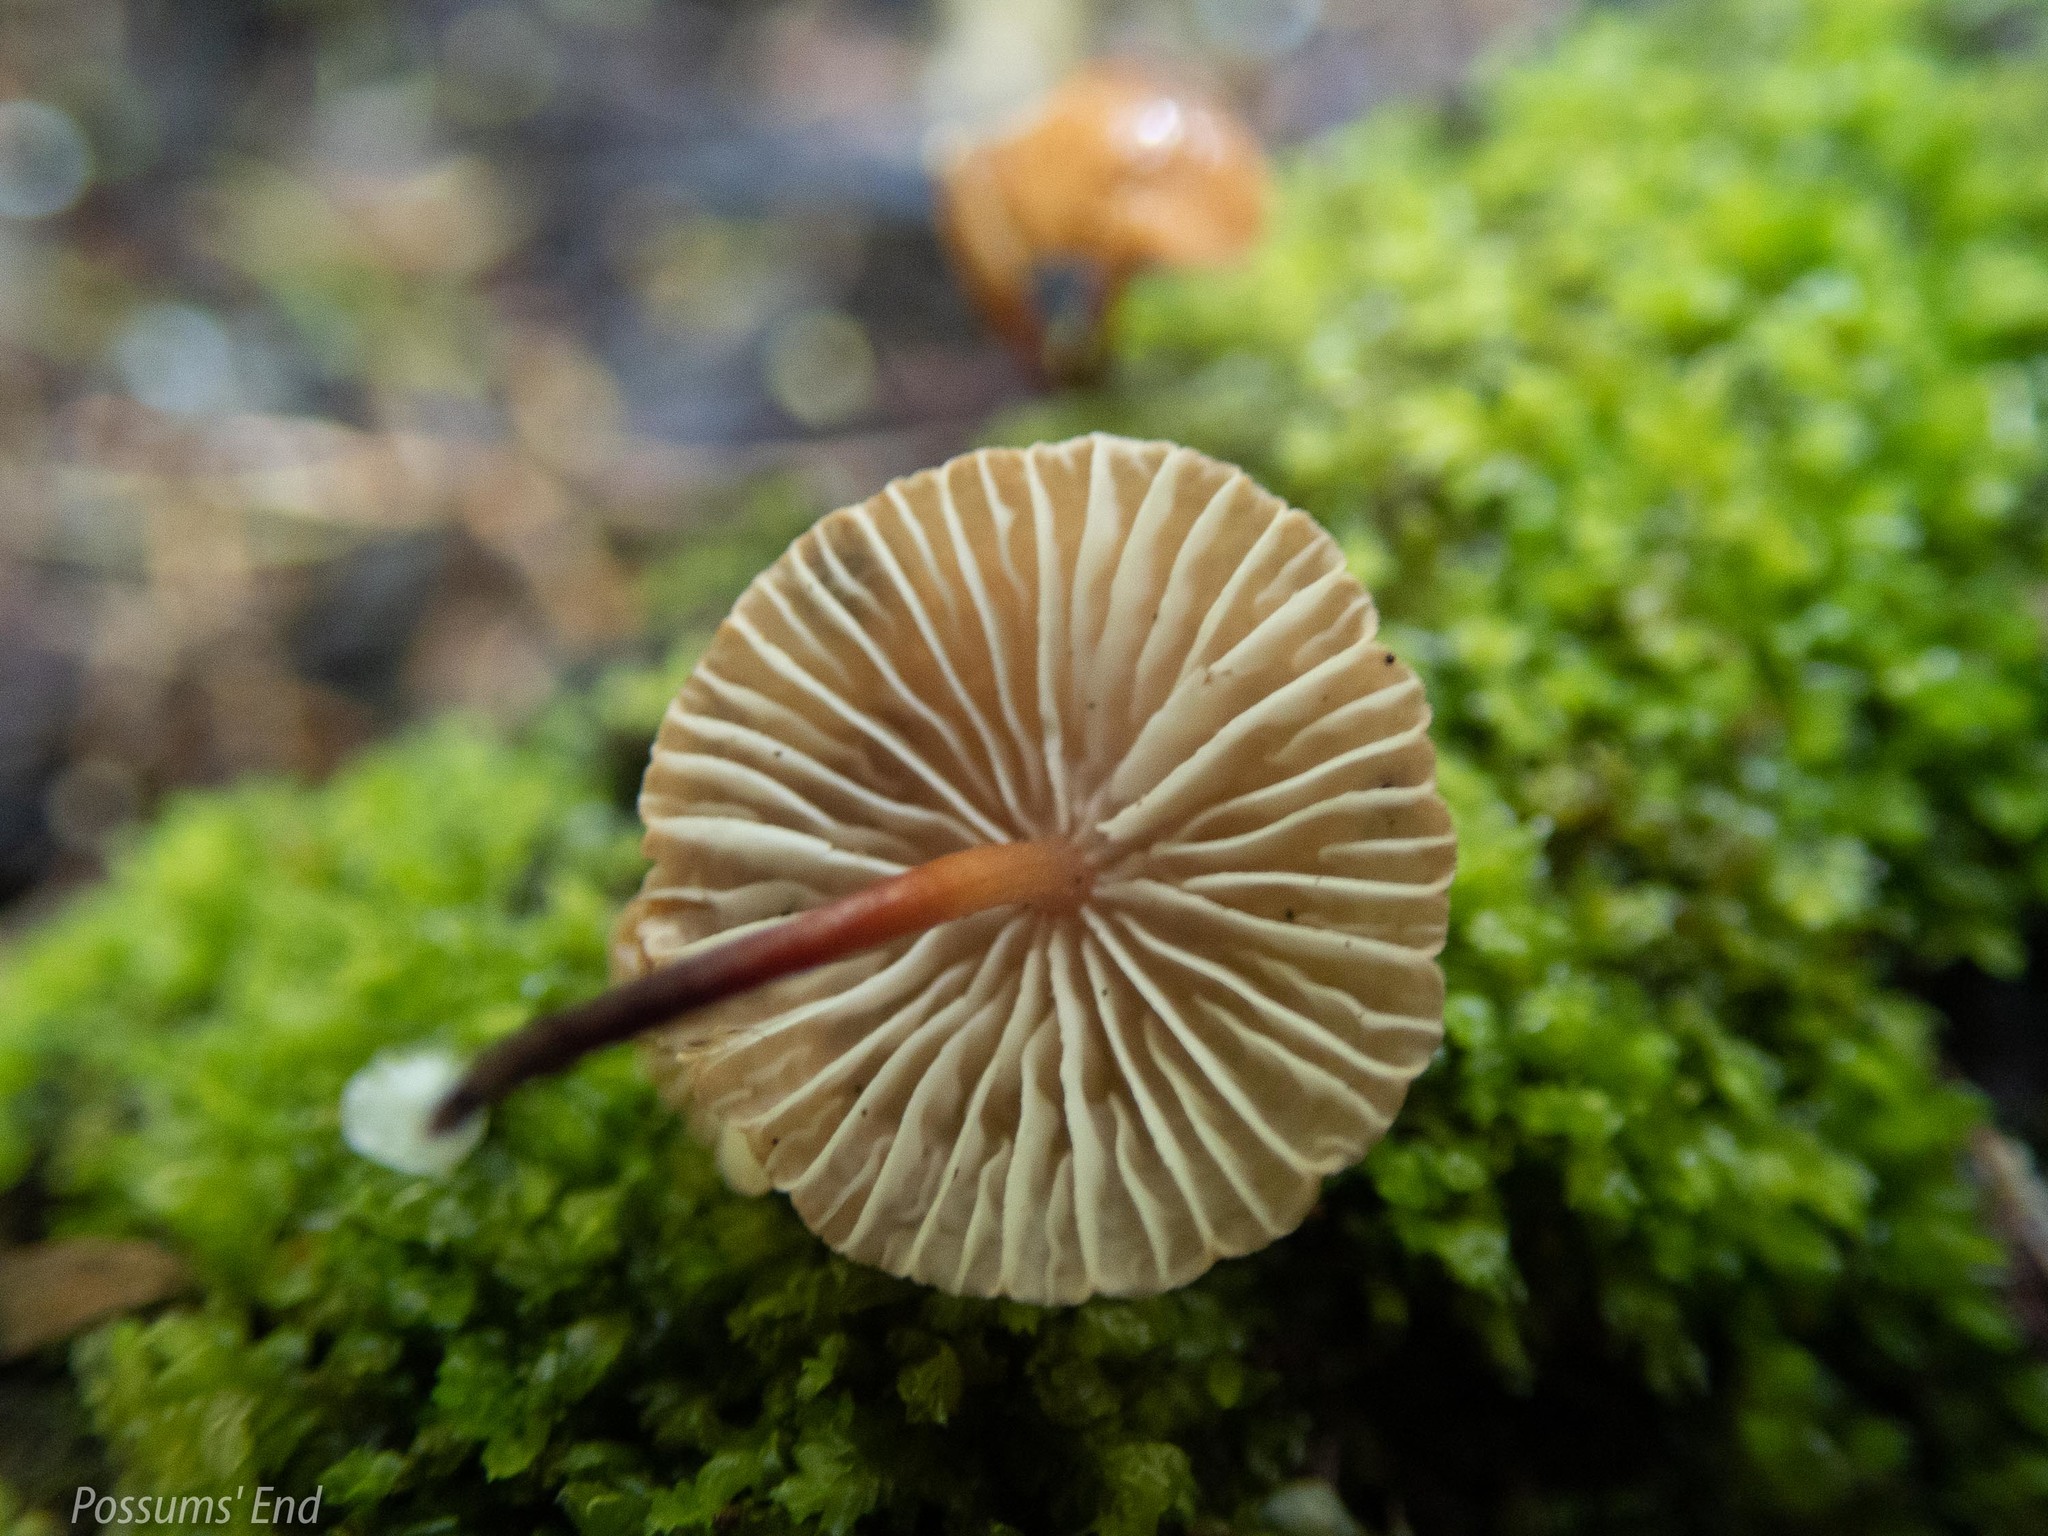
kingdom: Fungi
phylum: Basidiomycota
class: Agaricomycetes
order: Agaricales
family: Omphalotaceae
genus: Mycetinis
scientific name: Mycetinis curraniae
